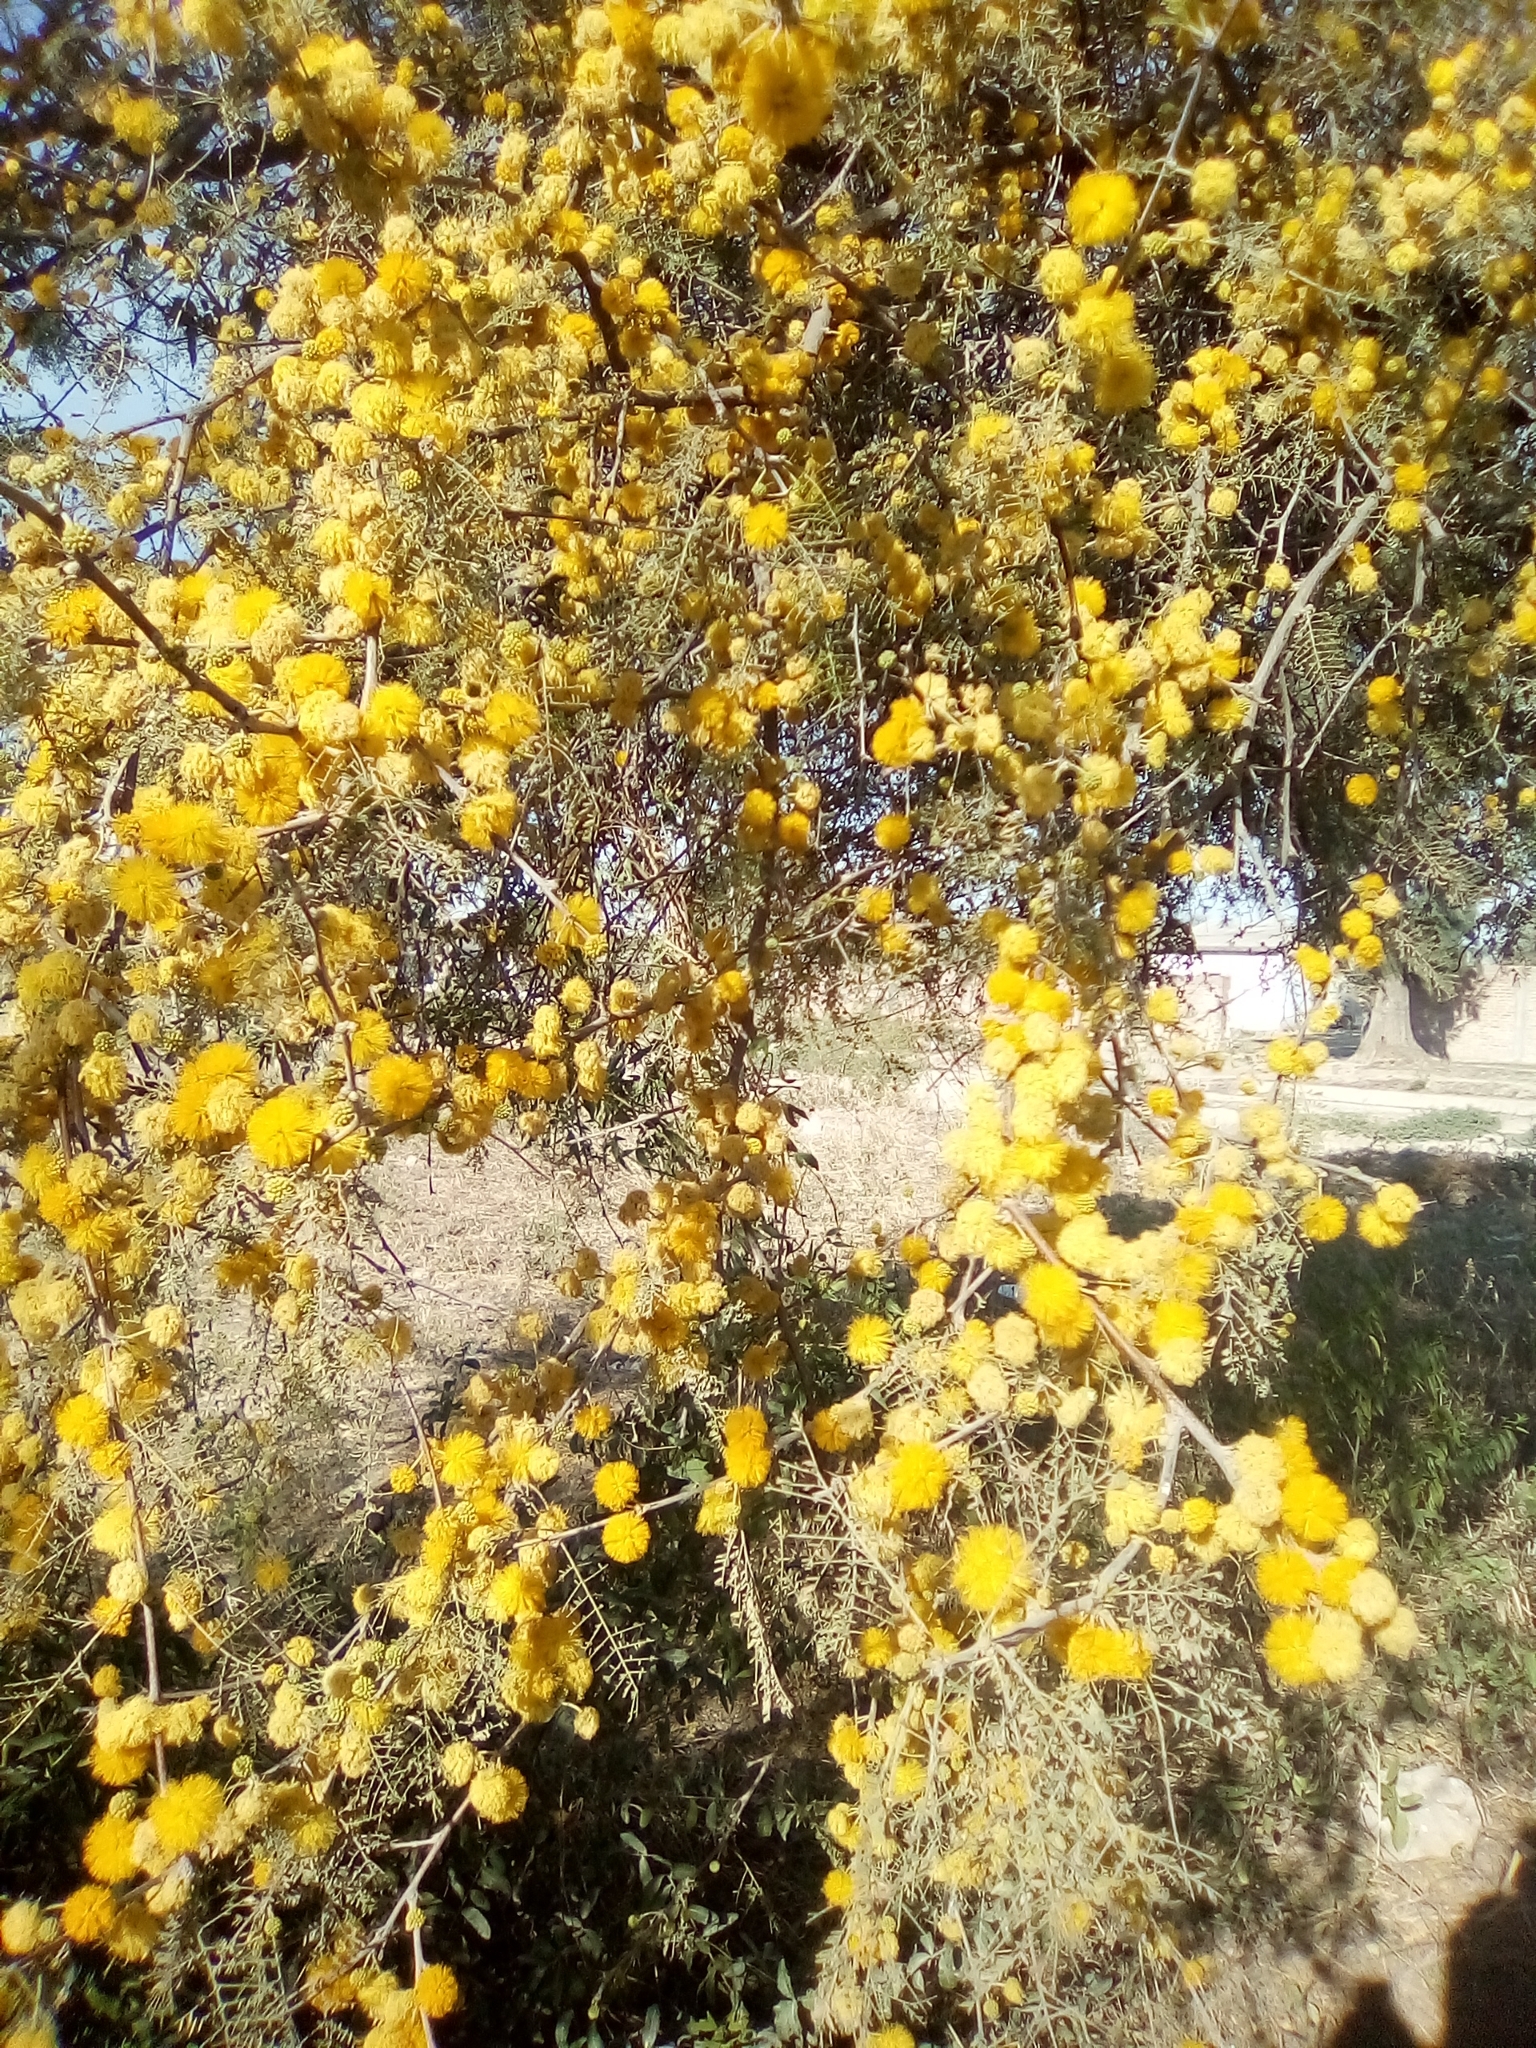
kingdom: Plantae
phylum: Tracheophyta
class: Magnoliopsida
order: Fabales
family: Fabaceae
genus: Vachellia
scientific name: Vachellia caven
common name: Roman cassie
